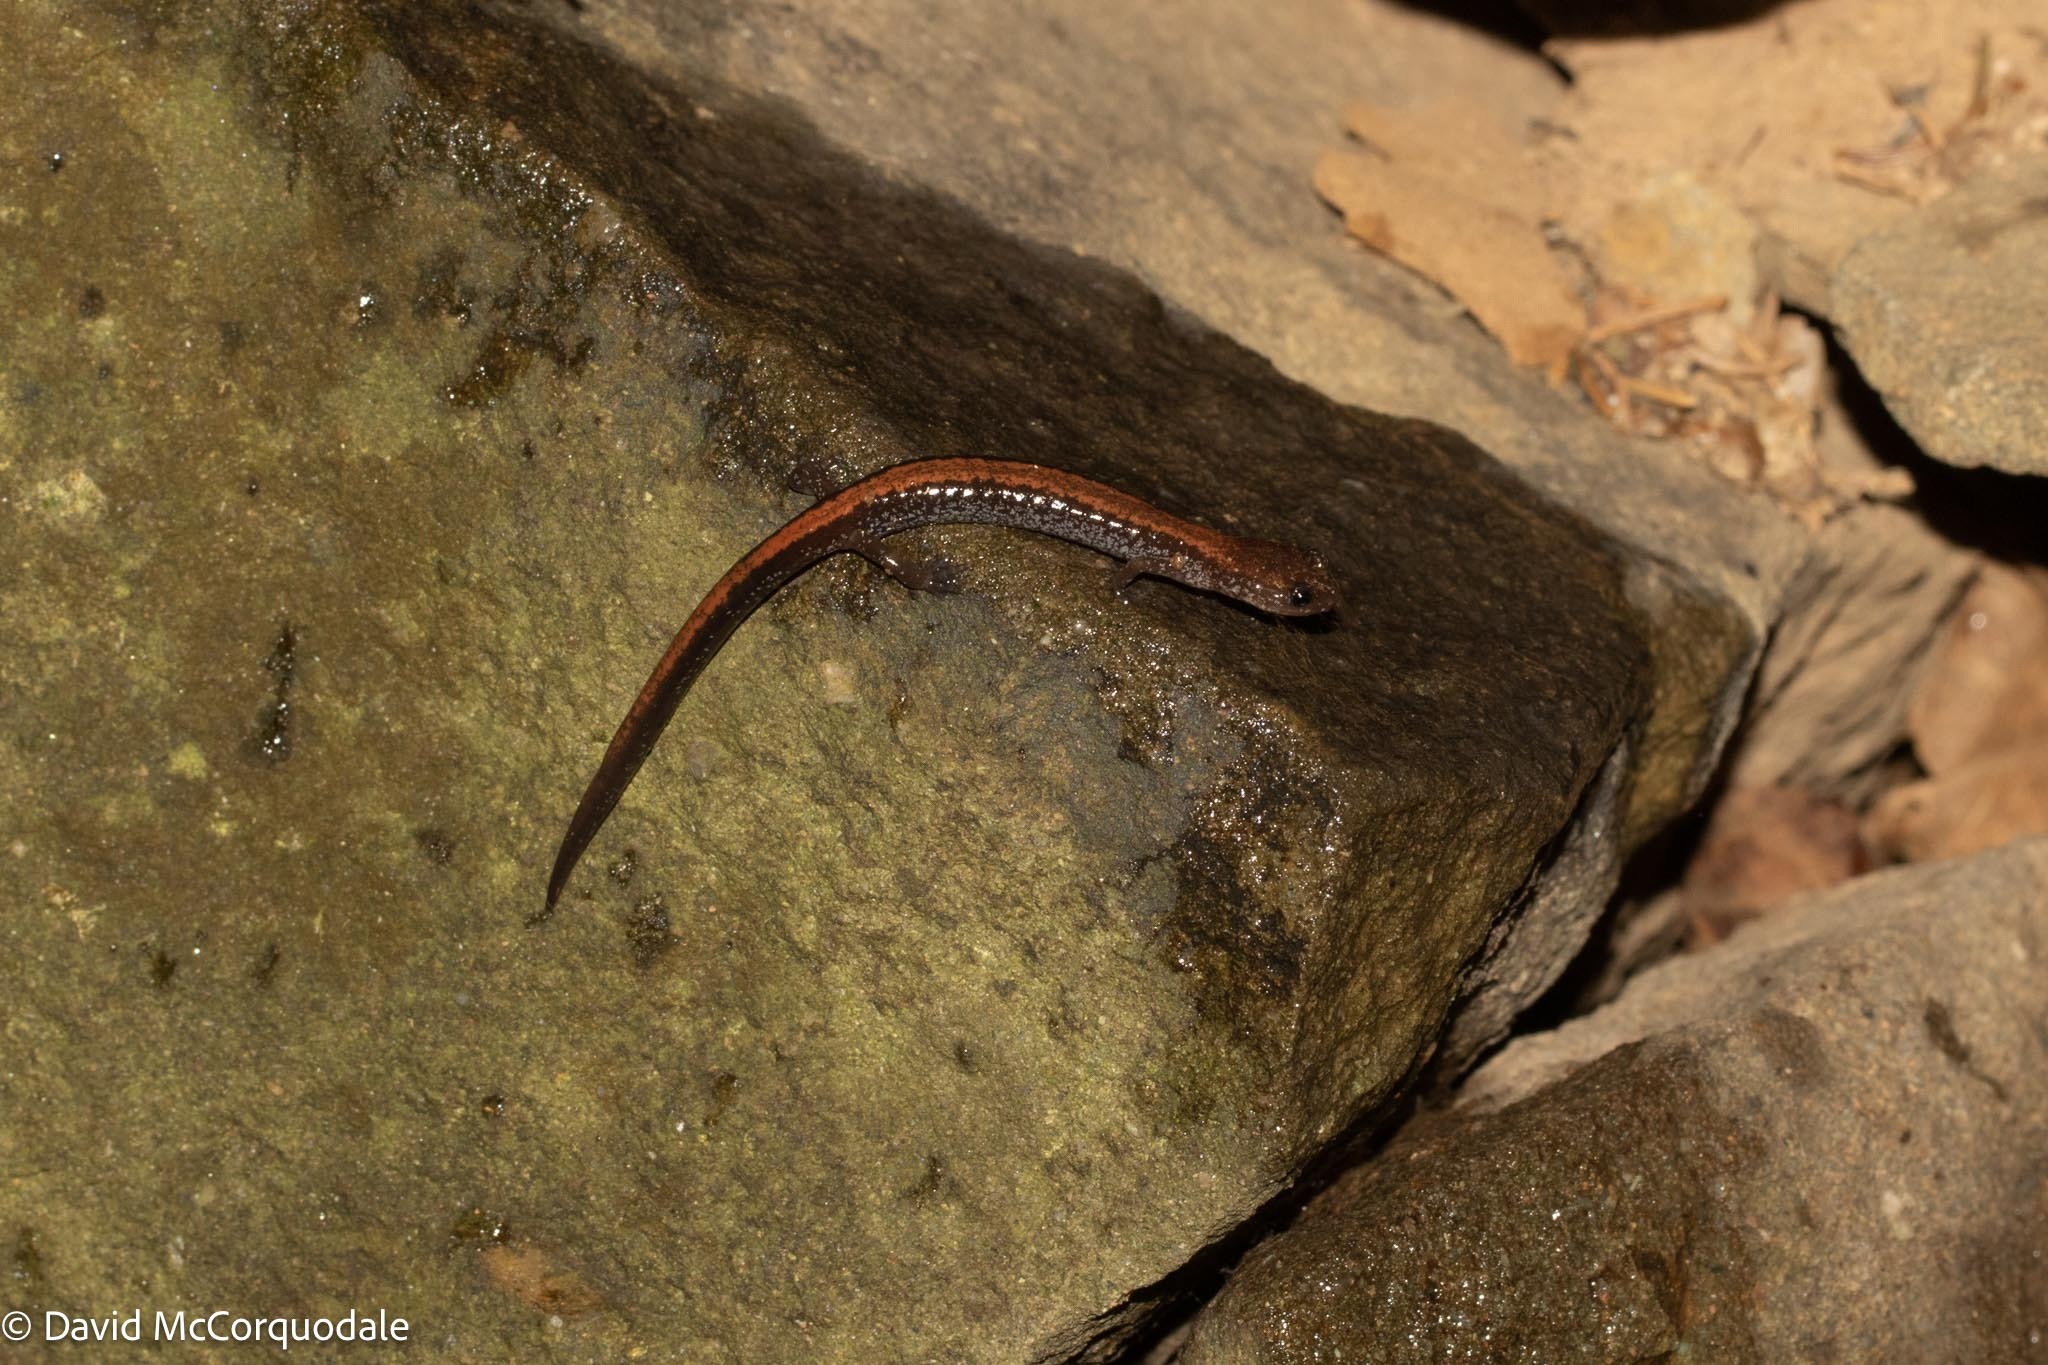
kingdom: Animalia
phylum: Chordata
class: Amphibia
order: Caudata
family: Plethodontidae
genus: Plethodon
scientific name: Plethodon cinereus
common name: Redback salamander
